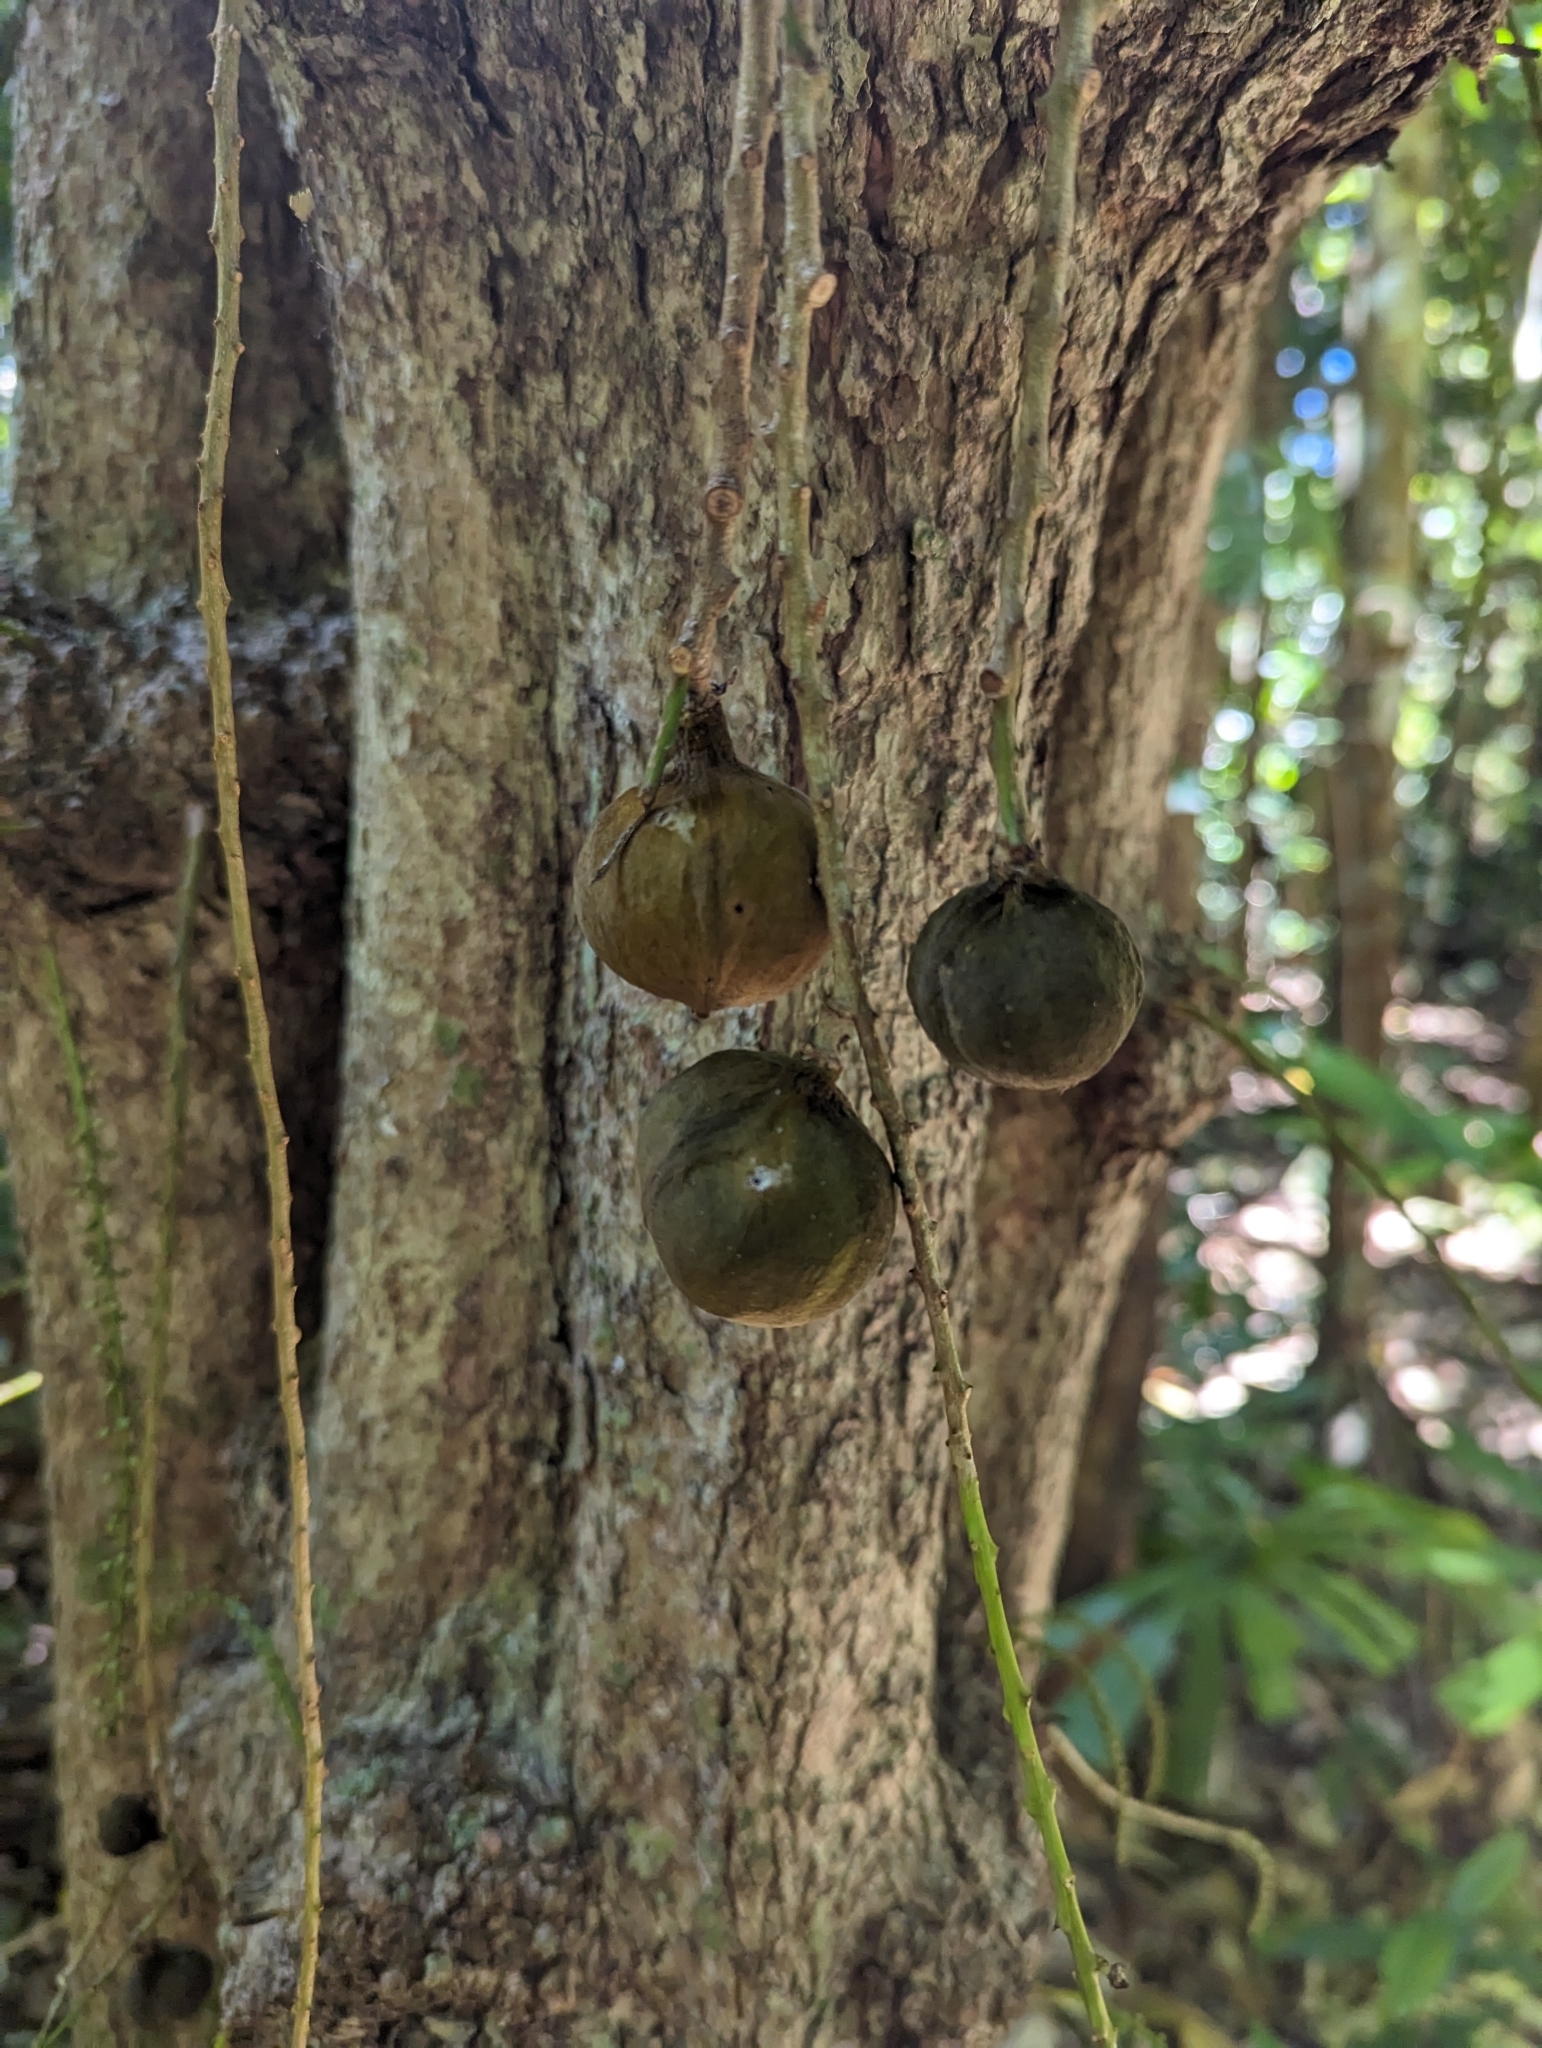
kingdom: Plantae
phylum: Tracheophyta
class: Magnoliopsida
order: Malpighiales
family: Achariaceae
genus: Ryparosa
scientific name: Ryparosa kurrangii
